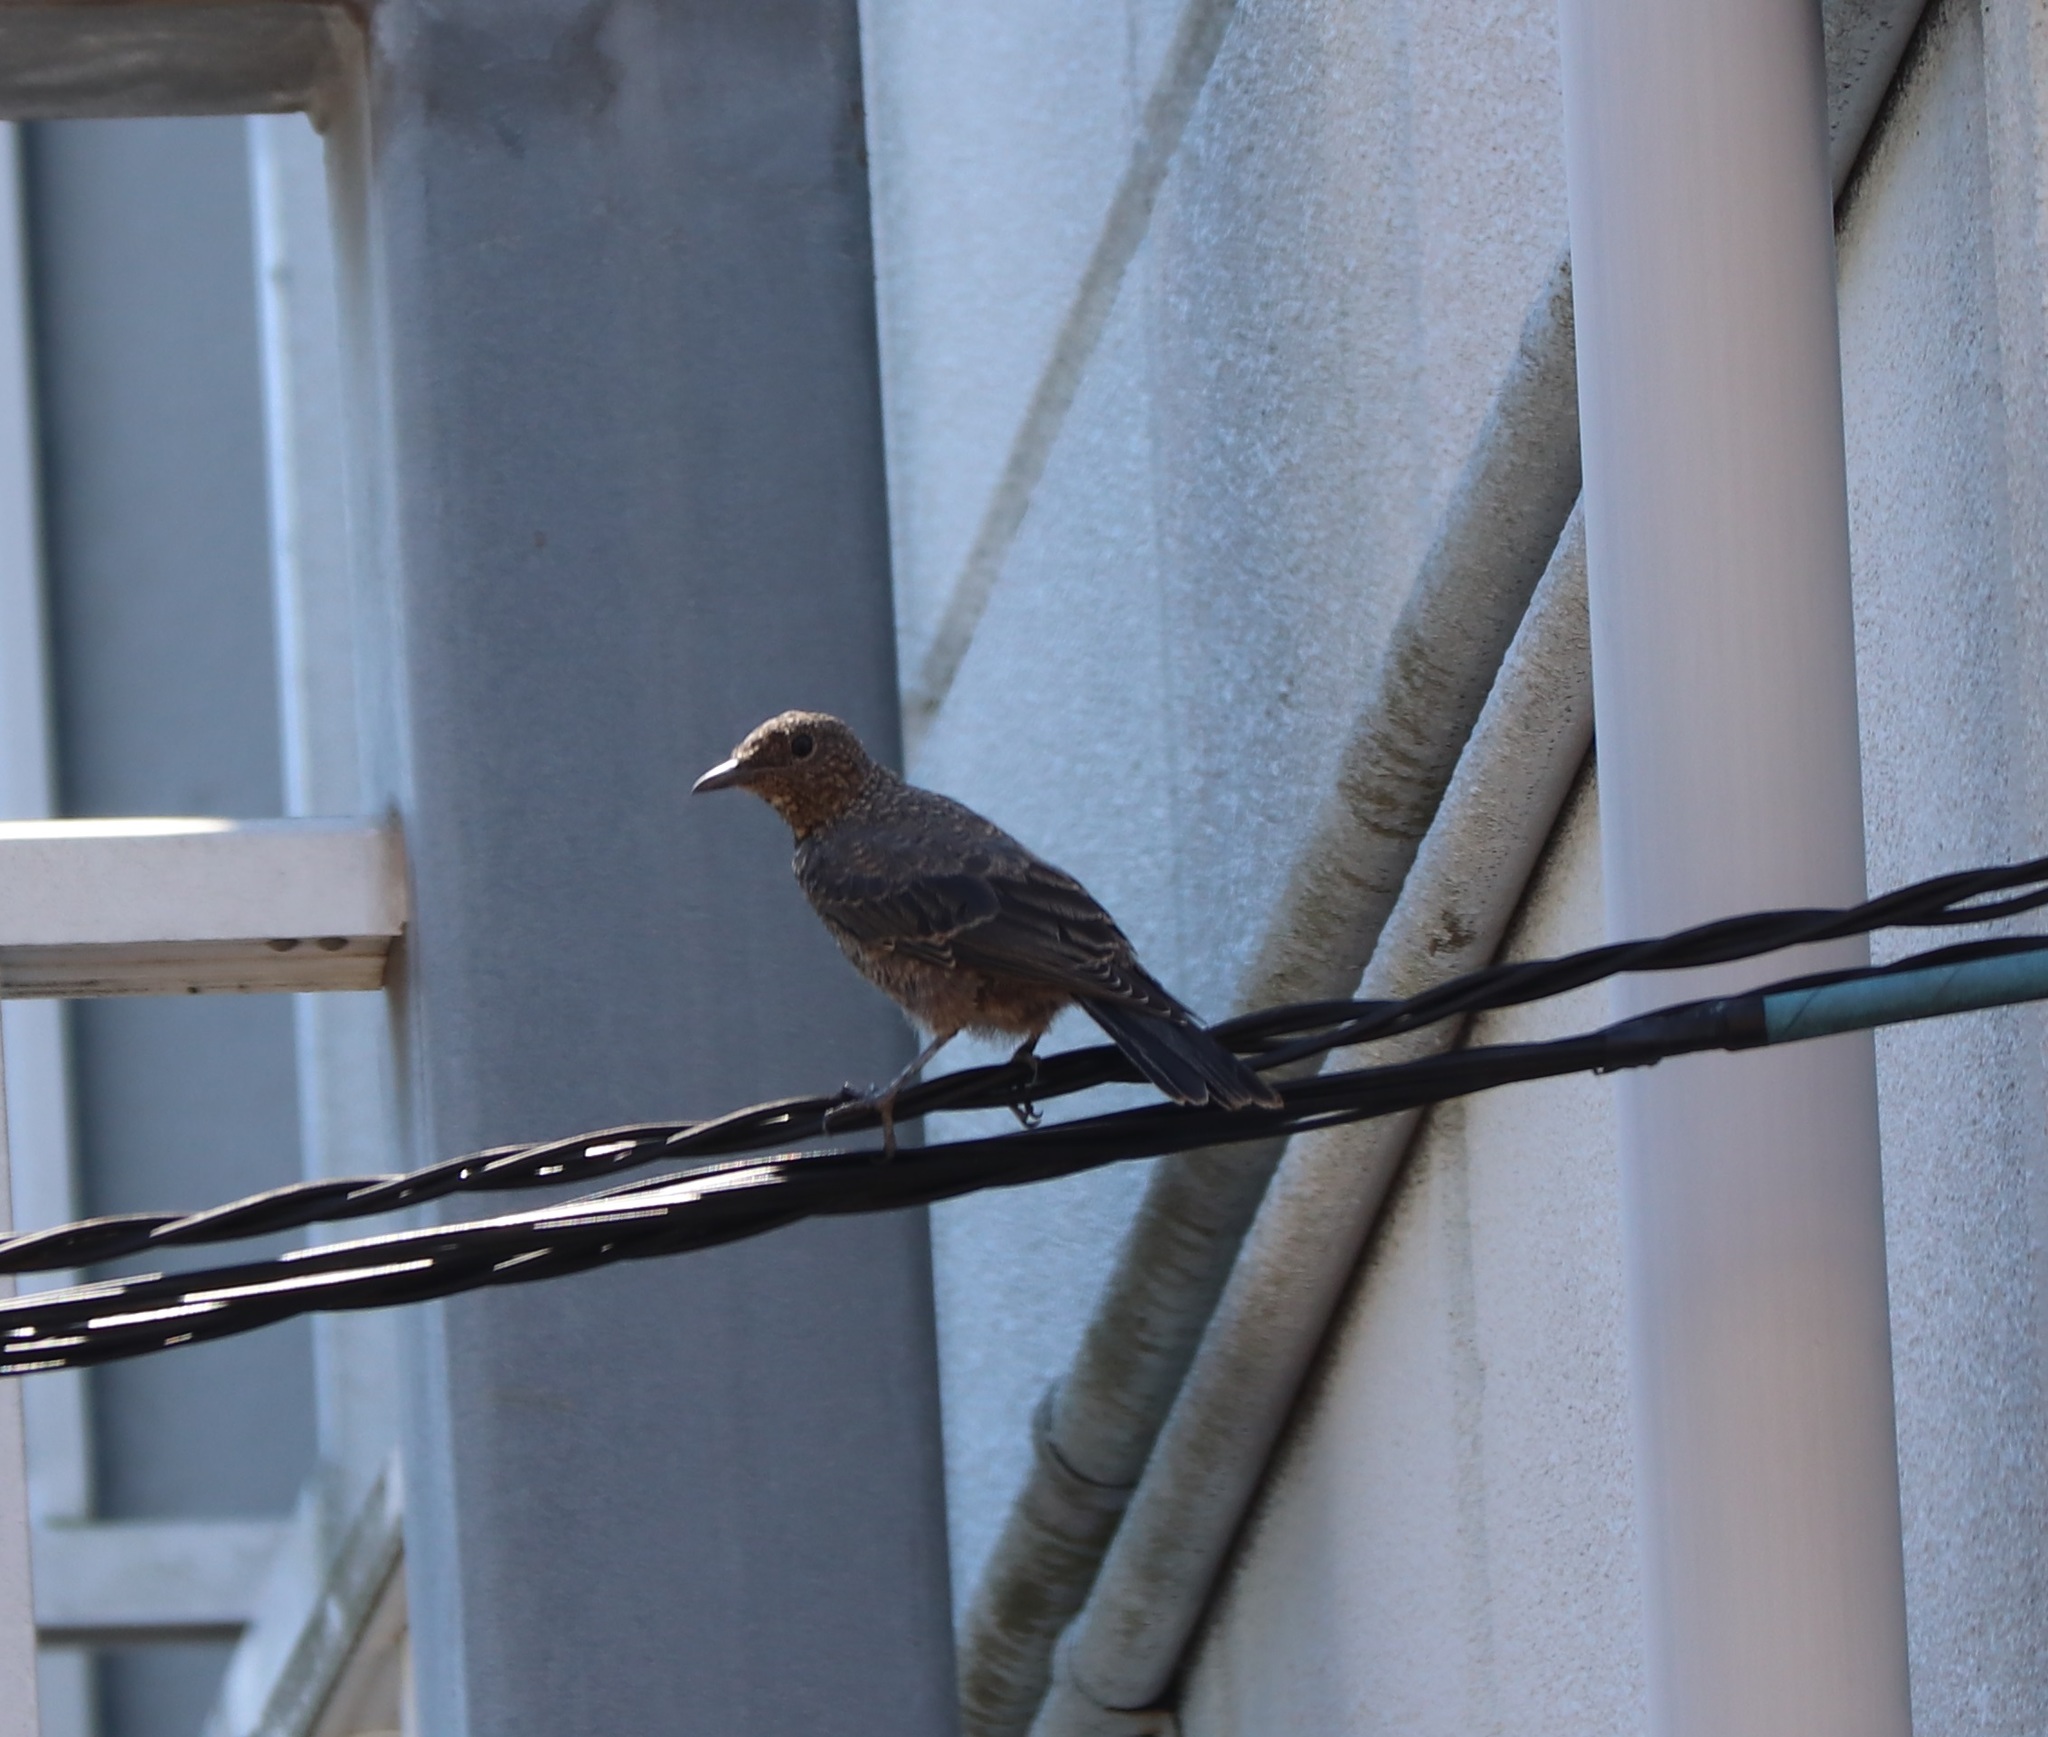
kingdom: Animalia
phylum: Chordata
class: Aves
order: Passeriformes
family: Muscicapidae
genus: Monticola
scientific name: Monticola solitarius
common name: Blue rock thrush
